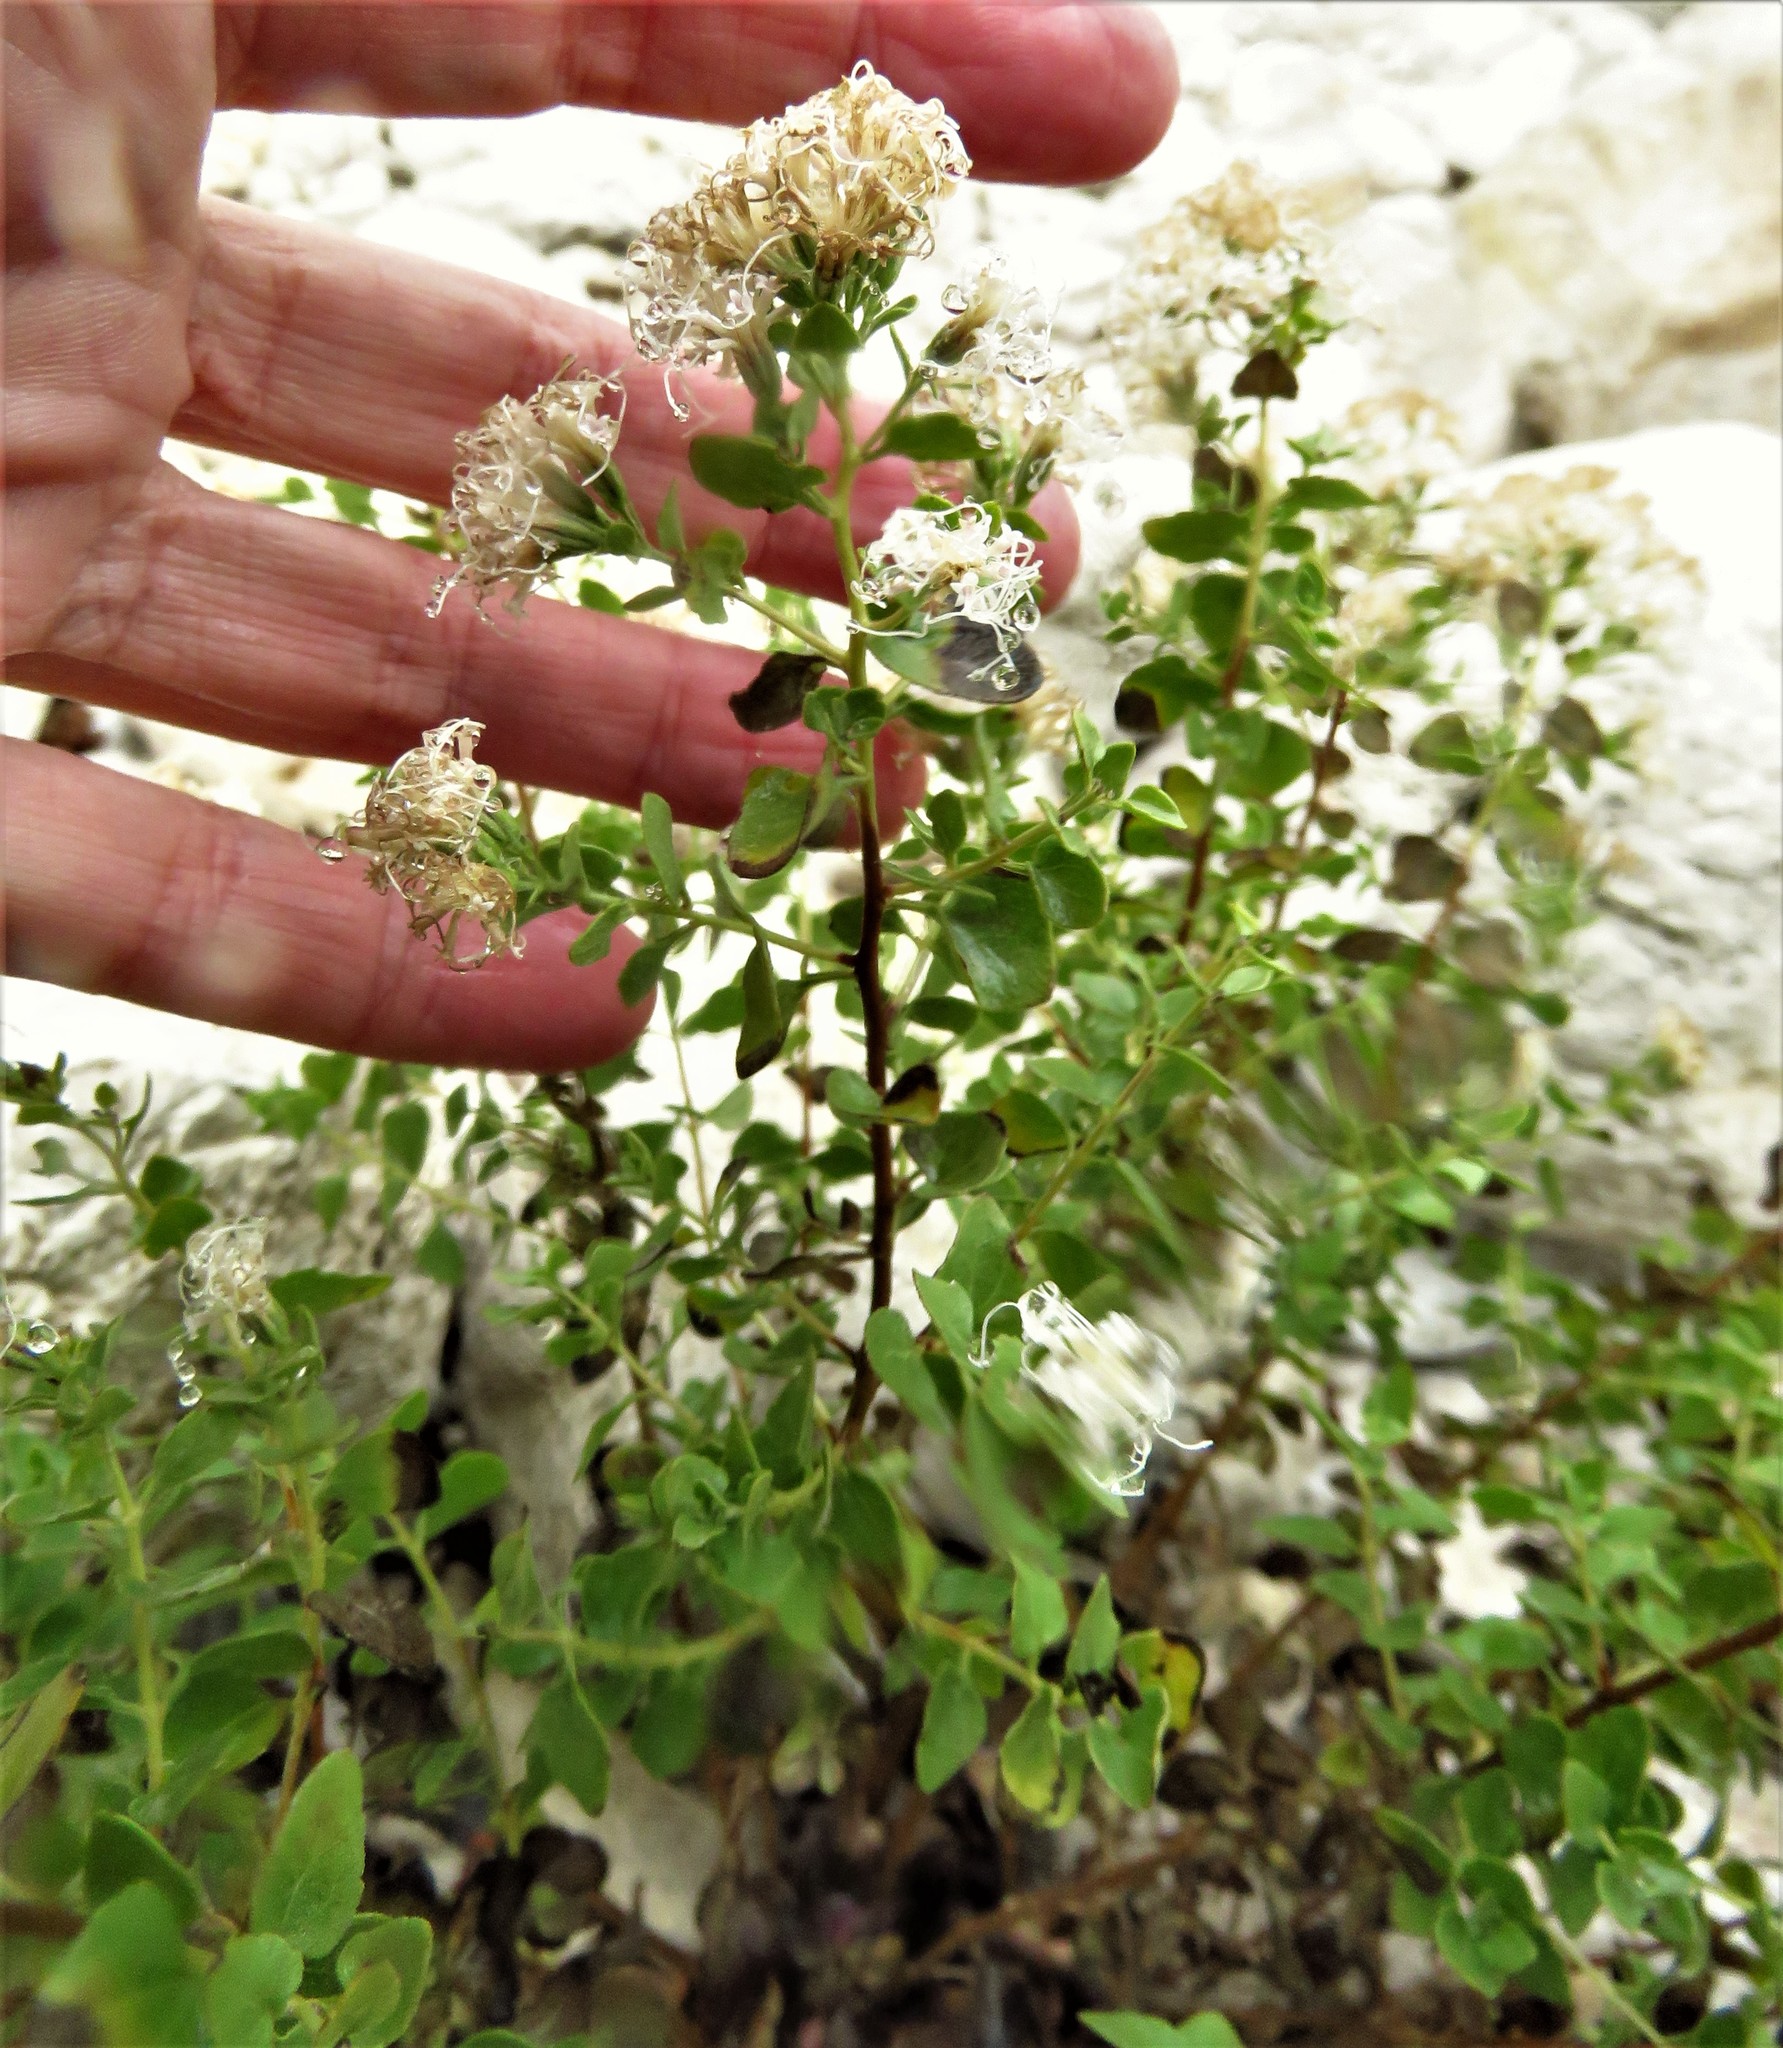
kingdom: Plantae
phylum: Tracheophyta
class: Magnoliopsida
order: Asterales
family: Asteraceae
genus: Ageratina
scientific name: Ageratina wrightii
